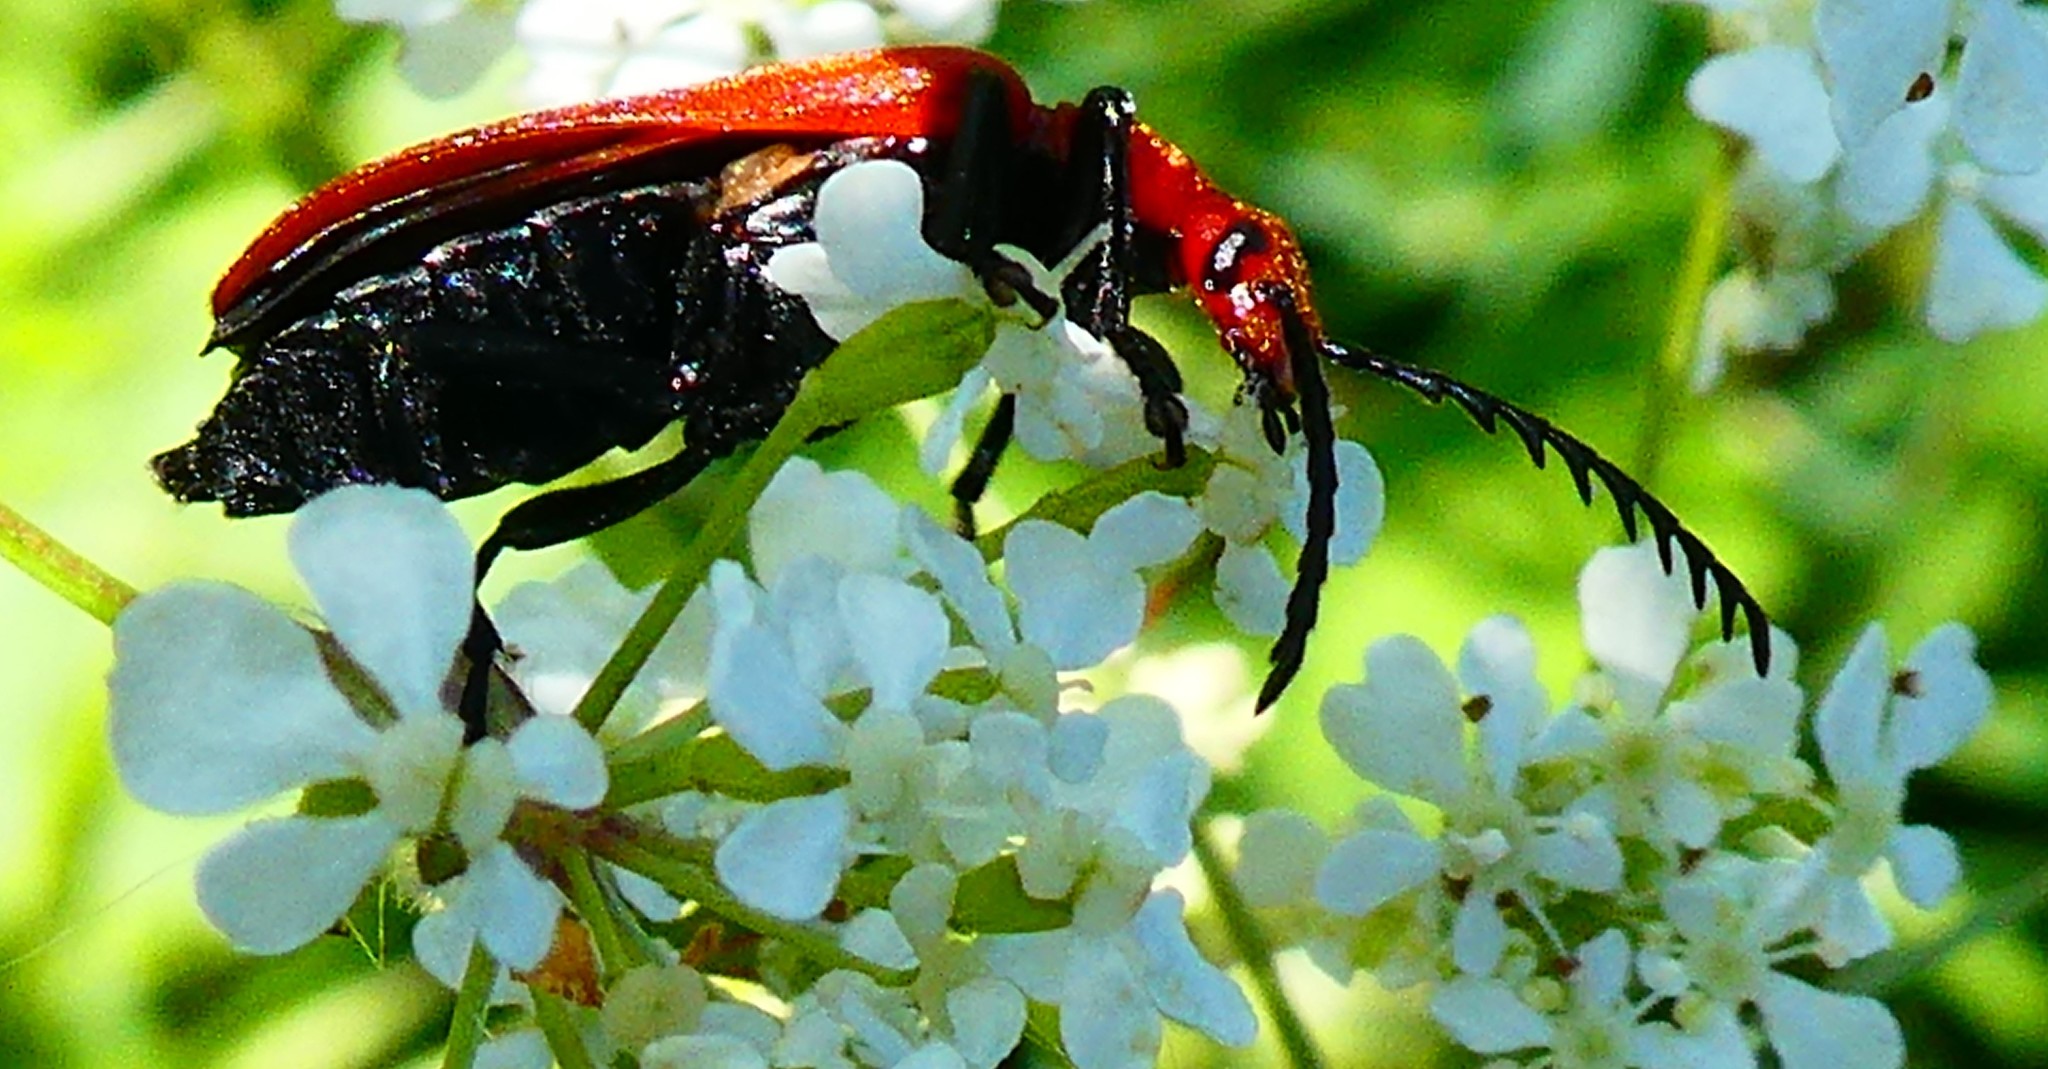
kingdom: Animalia
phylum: Arthropoda
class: Insecta
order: Coleoptera
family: Pyrochroidae
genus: Pyrochroa
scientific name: Pyrochroa serraticornis
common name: Red-headed cardinal beetle
